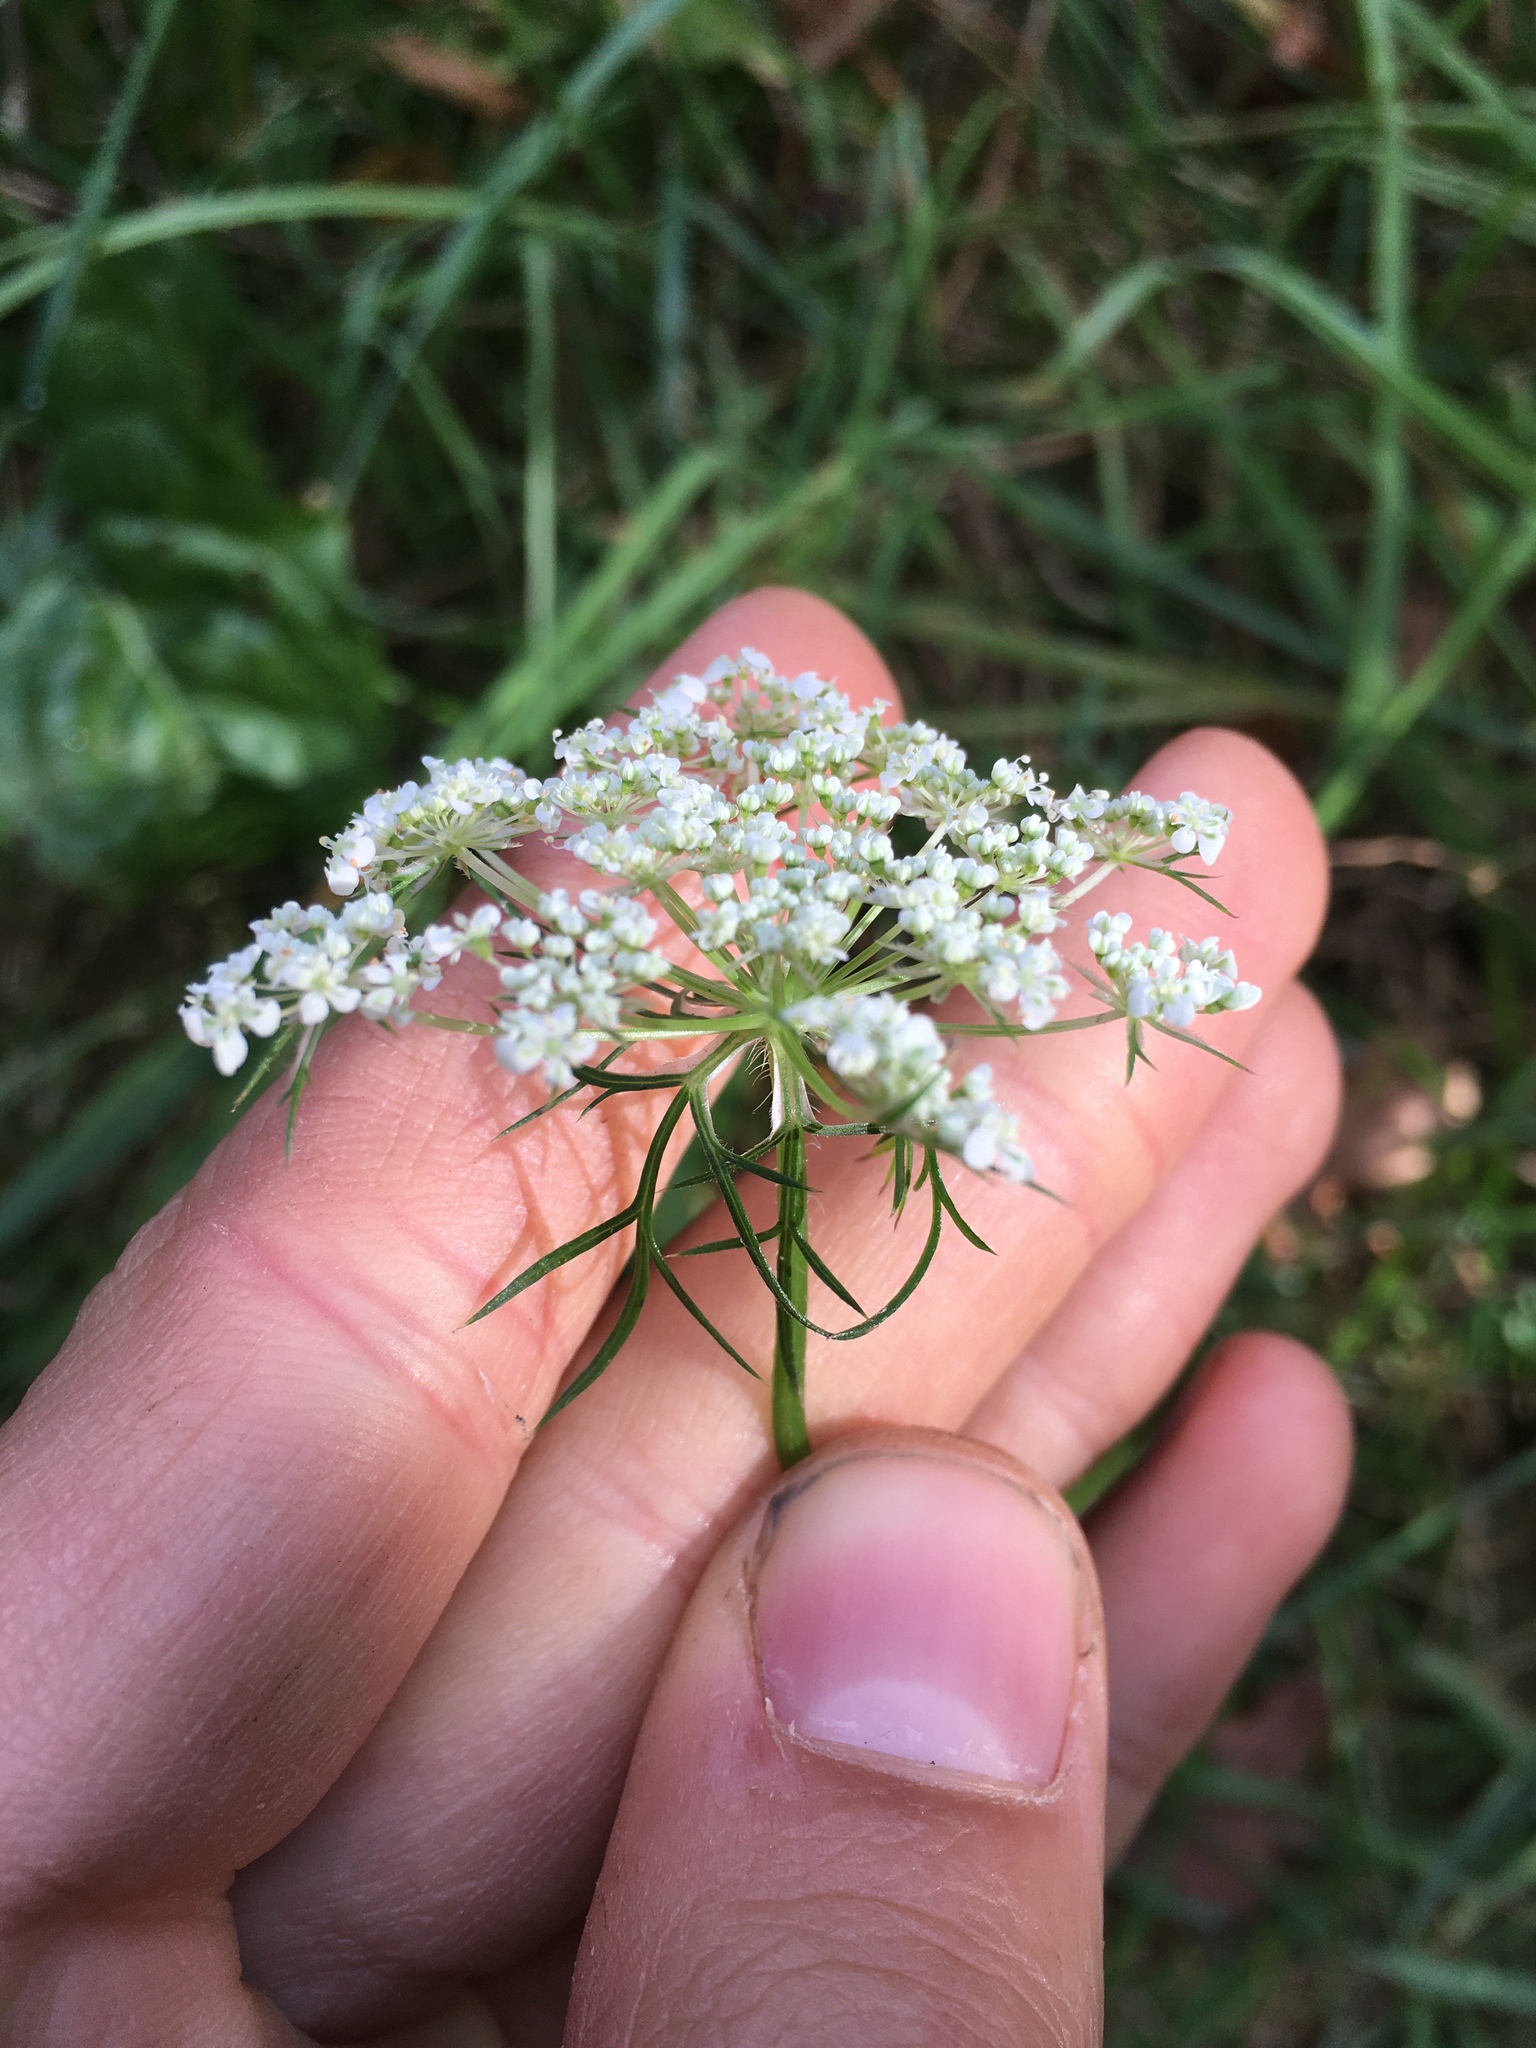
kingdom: Plantae
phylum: Tracheophyta
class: Magnoliopsida
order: Apiales
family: Apiaceae
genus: Daucus
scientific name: Daucus carota
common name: Wild carrot
